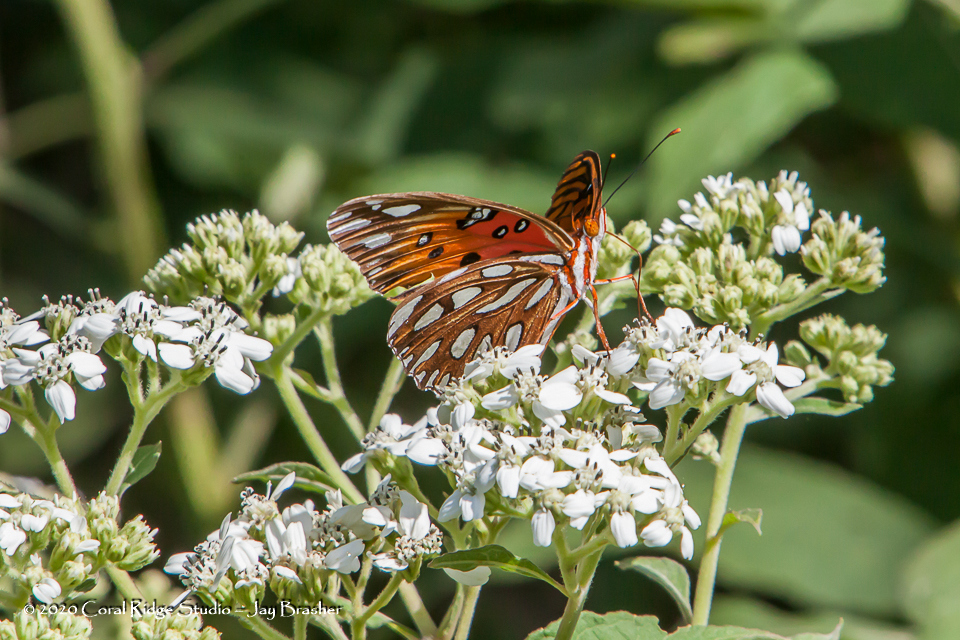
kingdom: Animalia
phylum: Arthropoda
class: Insecta
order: Lepidoptera
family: Nymphalidae
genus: Dione
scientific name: Dione vanillae
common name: Gulf fritillary
